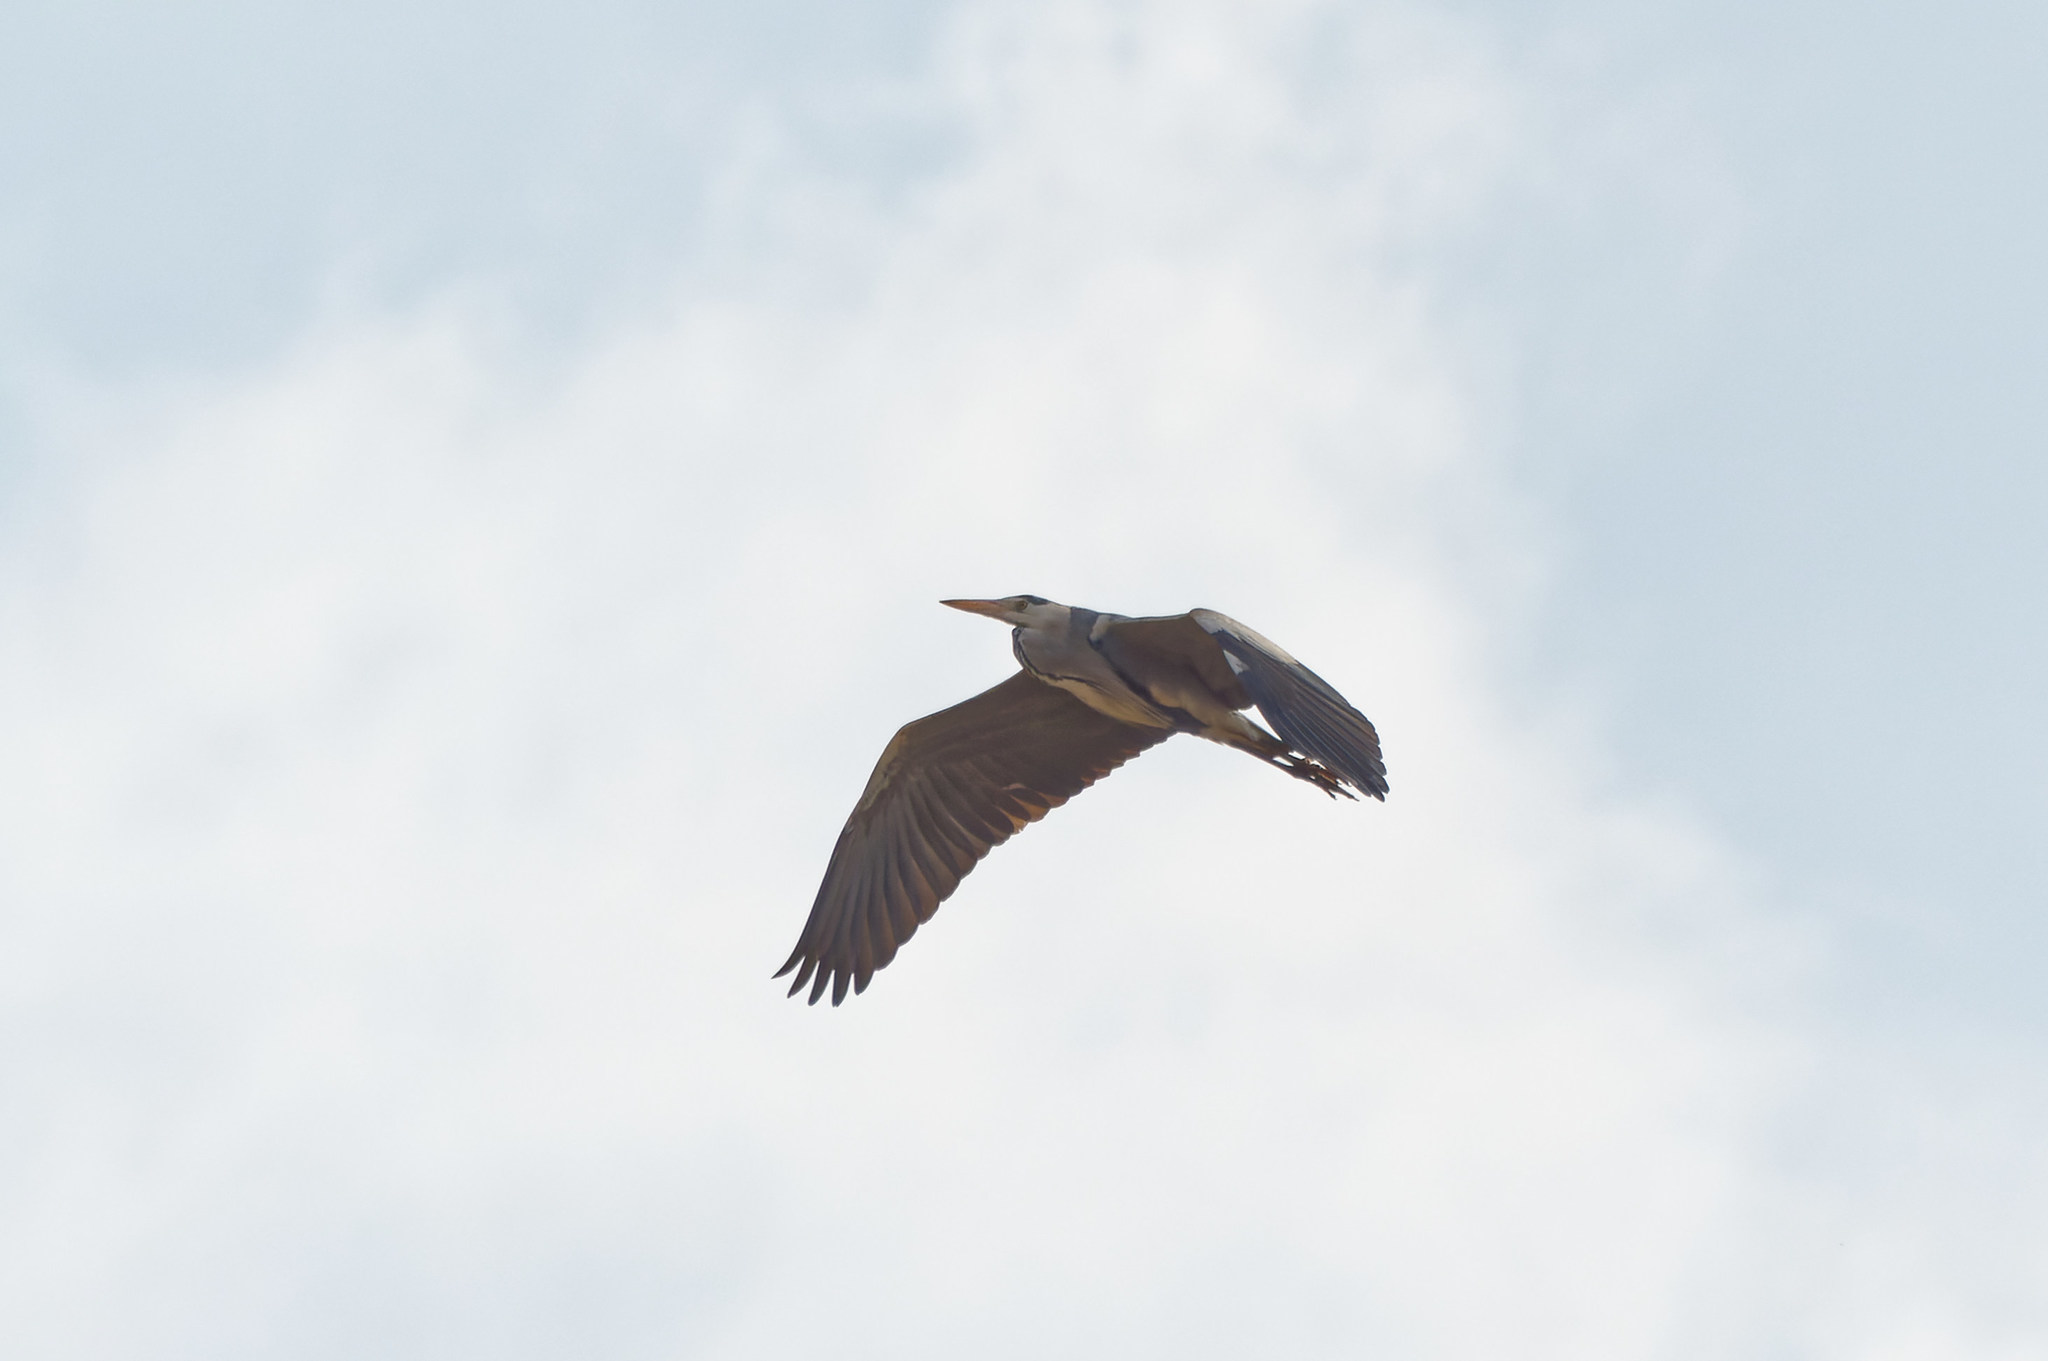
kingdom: Animalia
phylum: Chordata
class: Aves
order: Pelecaniformes
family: Ardeidae
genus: Ardea
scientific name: Ardea cinerea
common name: Grey heron
